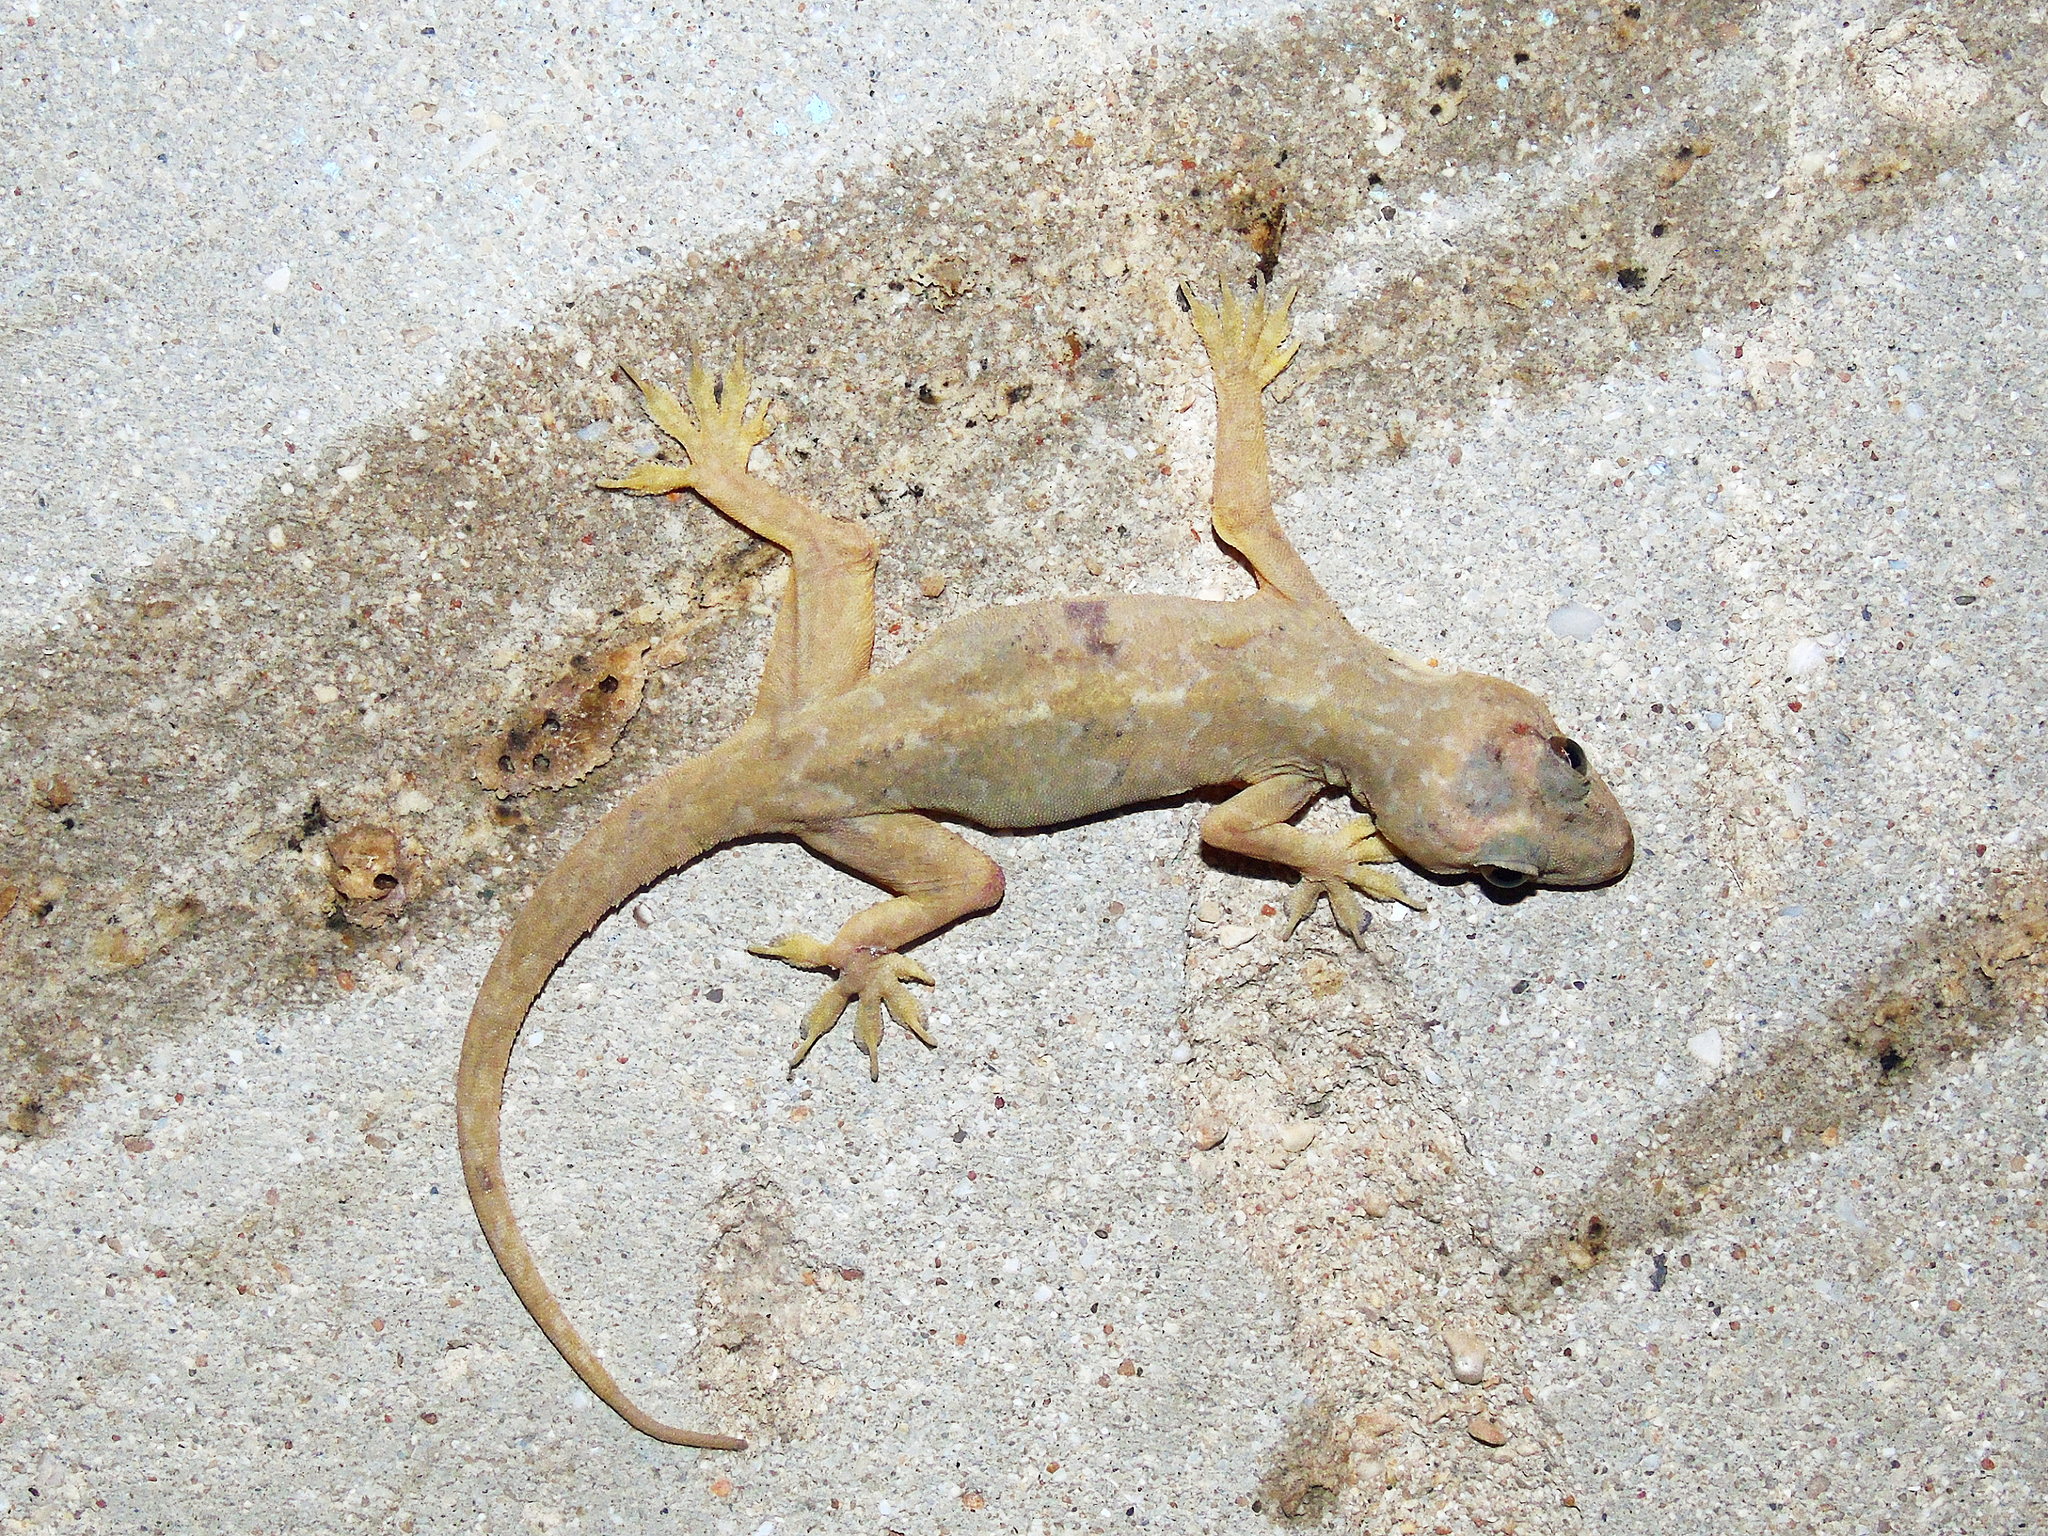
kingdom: Animalia
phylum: Chordata
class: Squamata
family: Gekkonidae
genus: Hemidactylus
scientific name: Hemidactylus flaviviridis
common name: Northern house gecko
